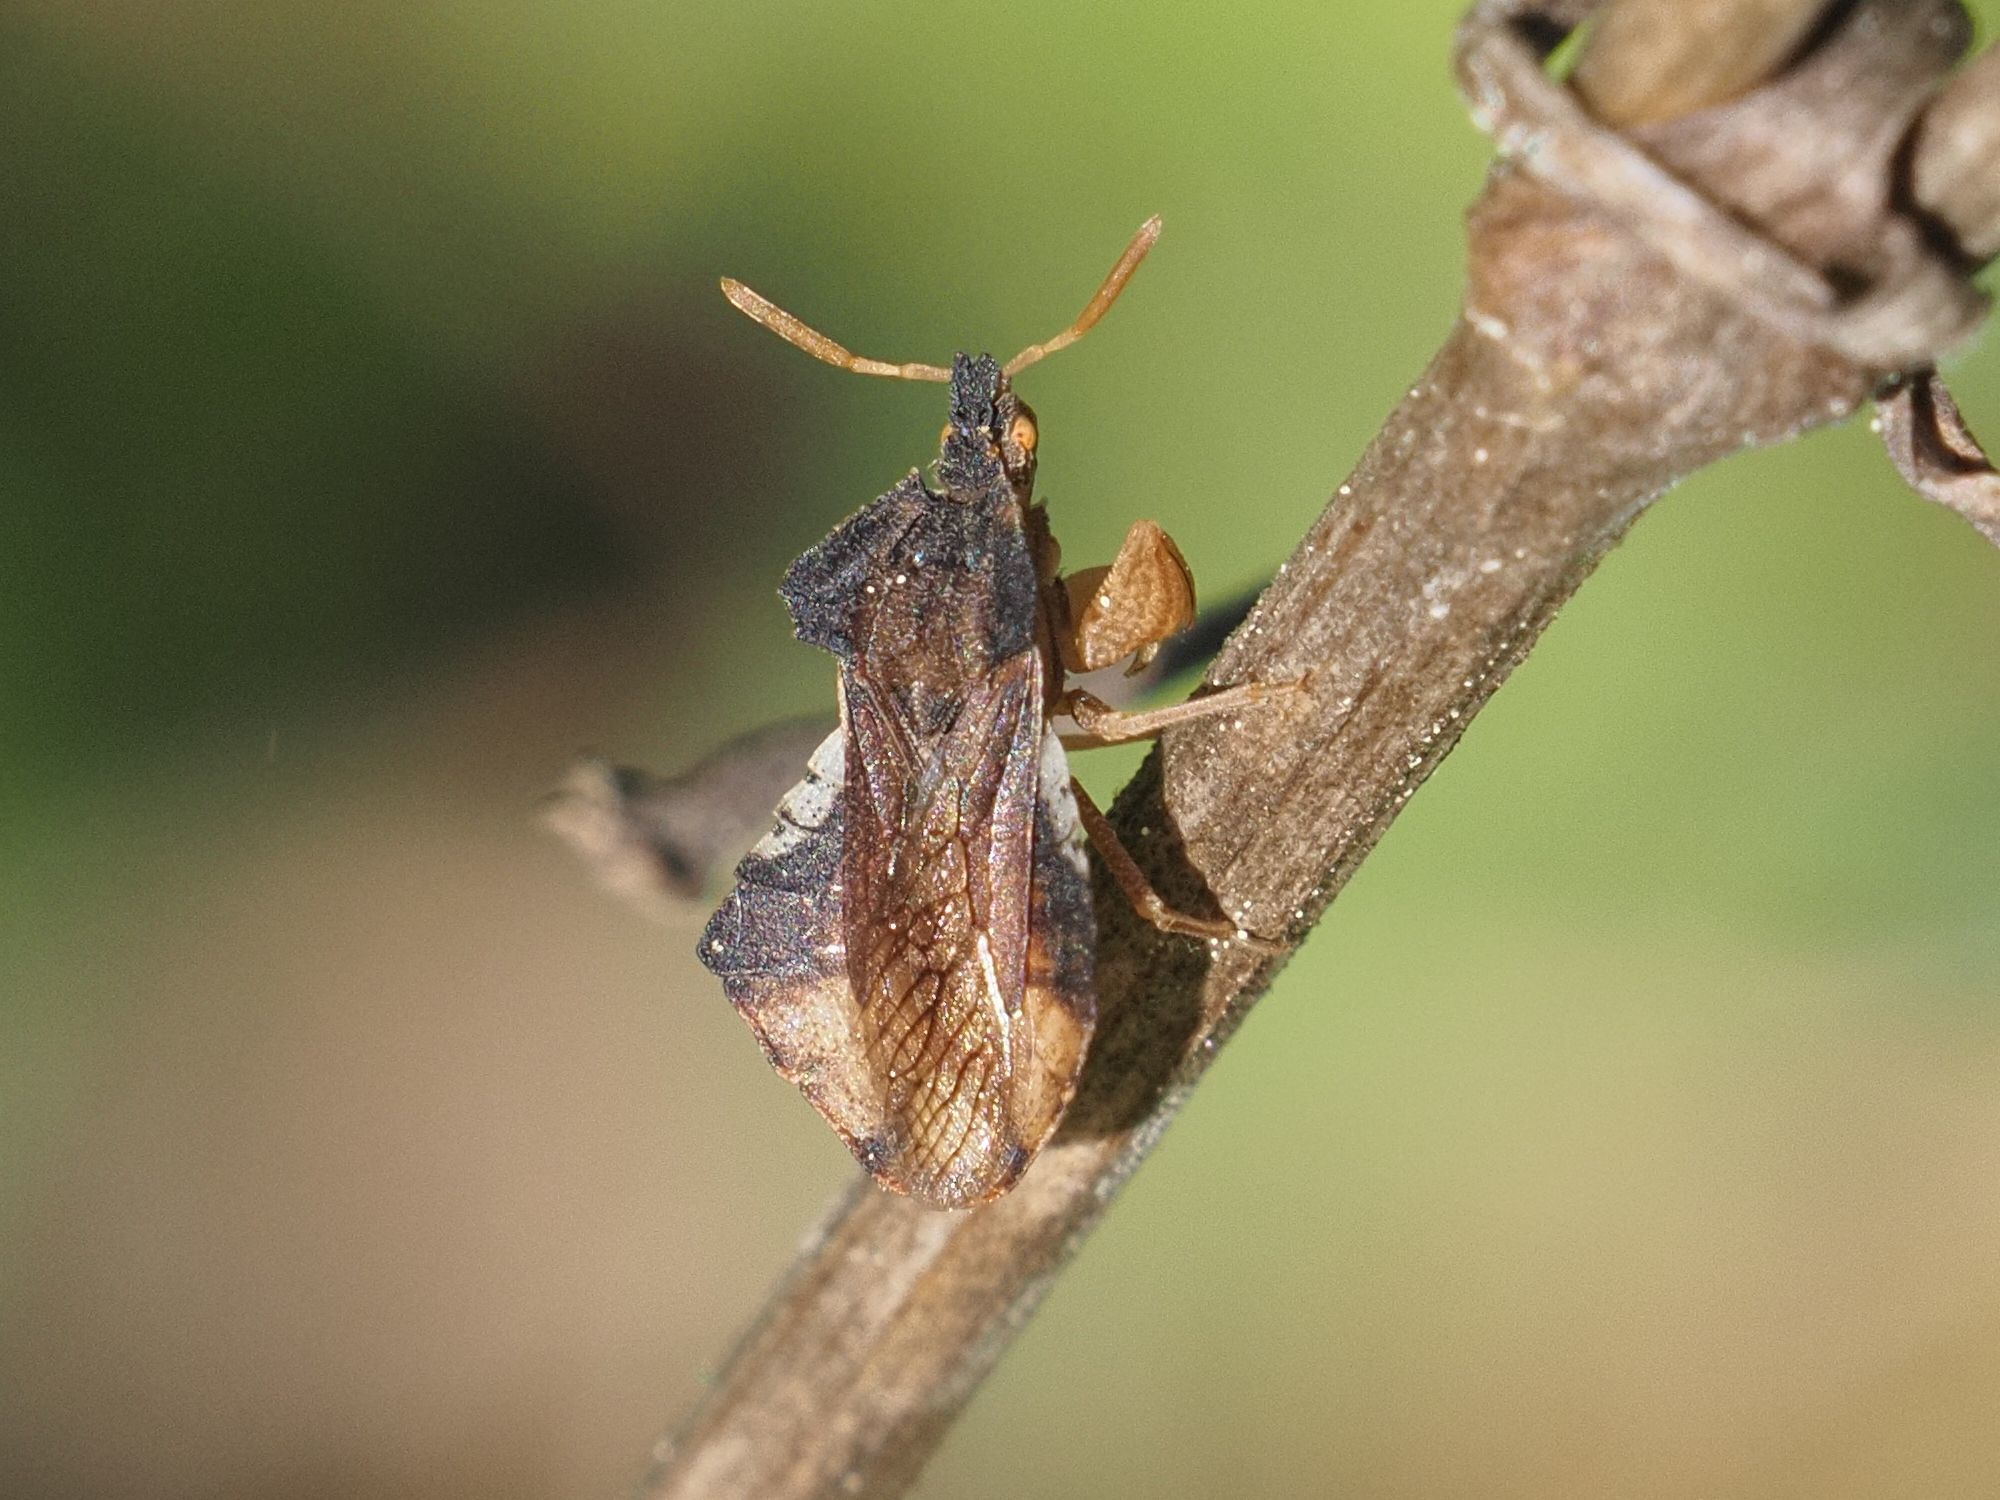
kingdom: Animalia
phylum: Arthropoda
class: Insecta
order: Hemiptera
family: Reduviidae
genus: Phymata
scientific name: Phymata crassipes
